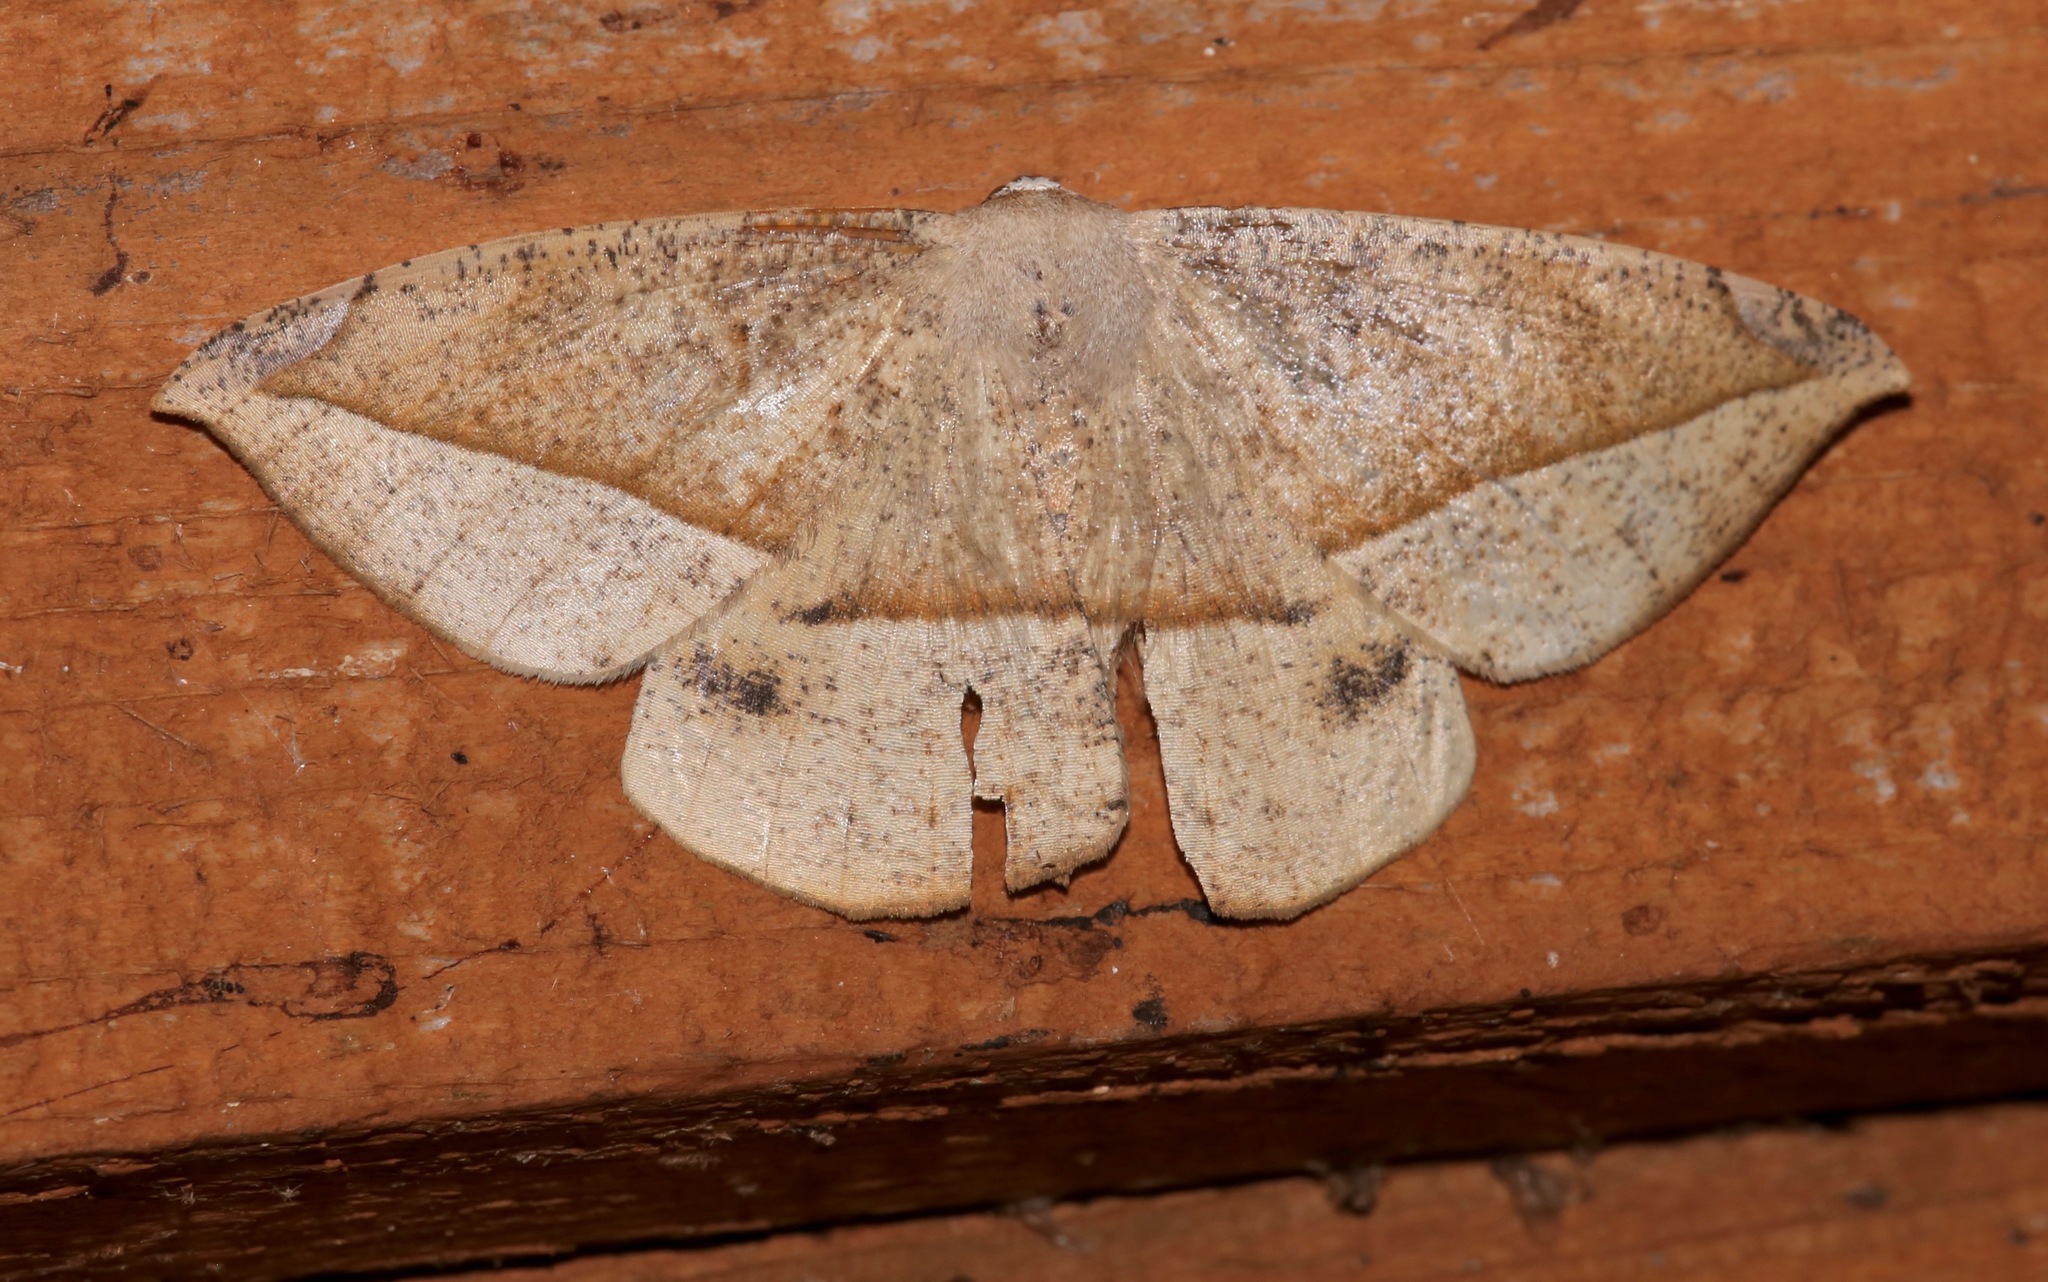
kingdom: Animalia
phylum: Arthropoda
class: Insecta
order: Lepidoptera
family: Geometridae
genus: Oxydia
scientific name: Oxydia vesulia
